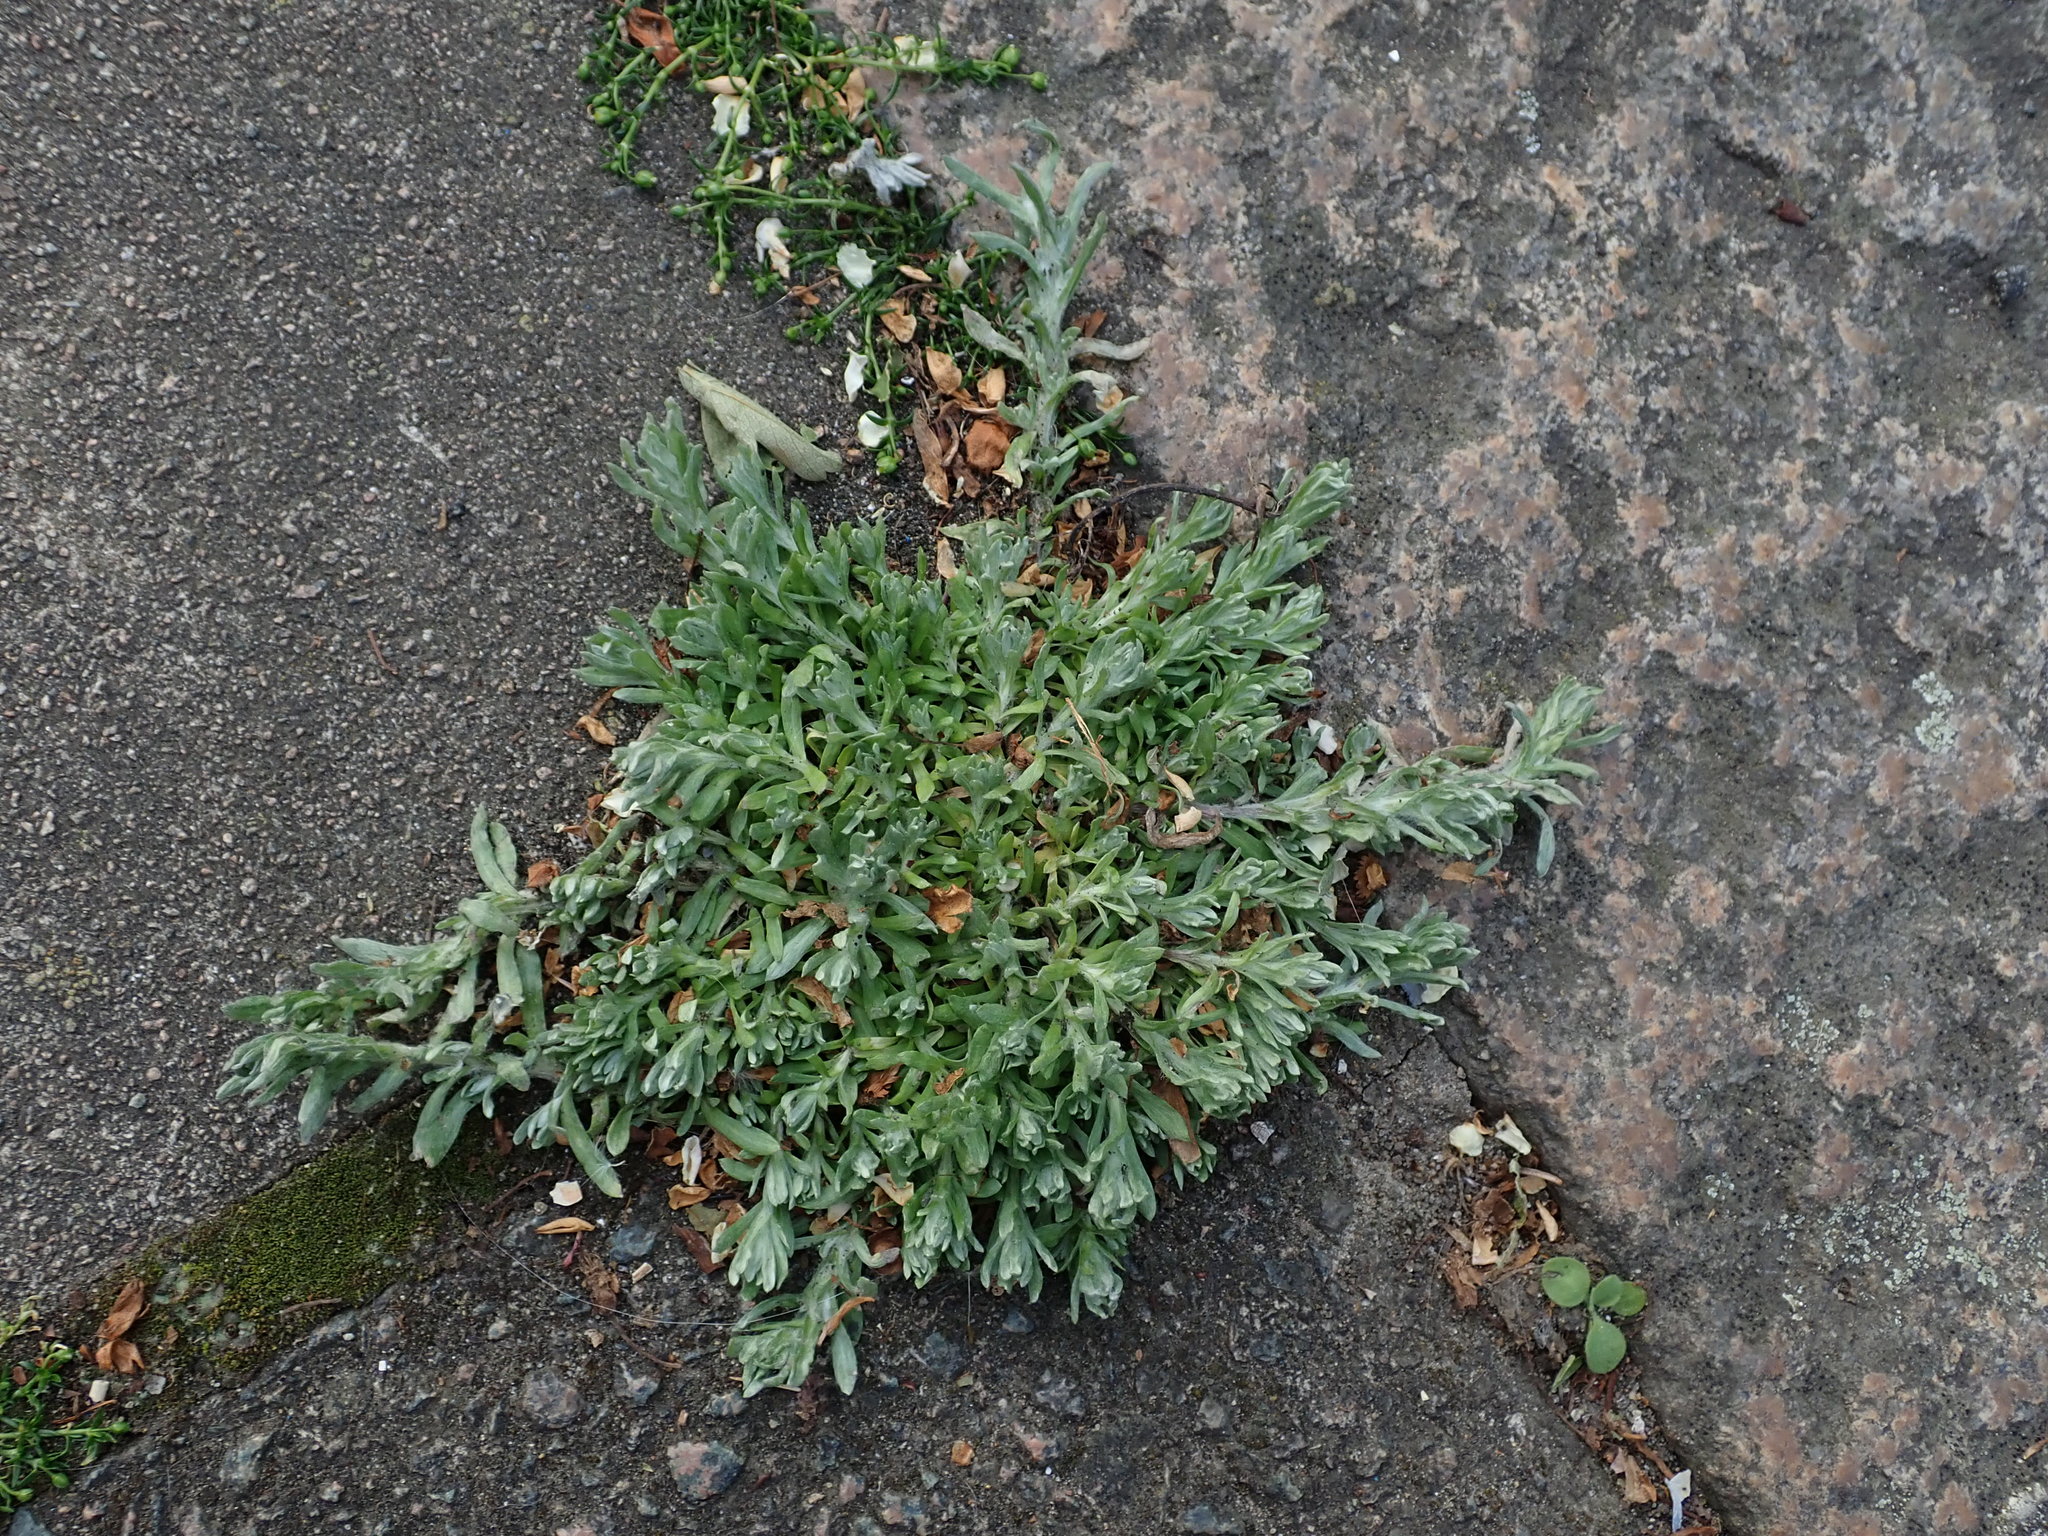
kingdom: Plantae
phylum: Tracheophyta
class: Magnoliopsida
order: Asterales
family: Asteraceae
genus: Helichrysum
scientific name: Helichrysum luteoalbum
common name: Daisy
